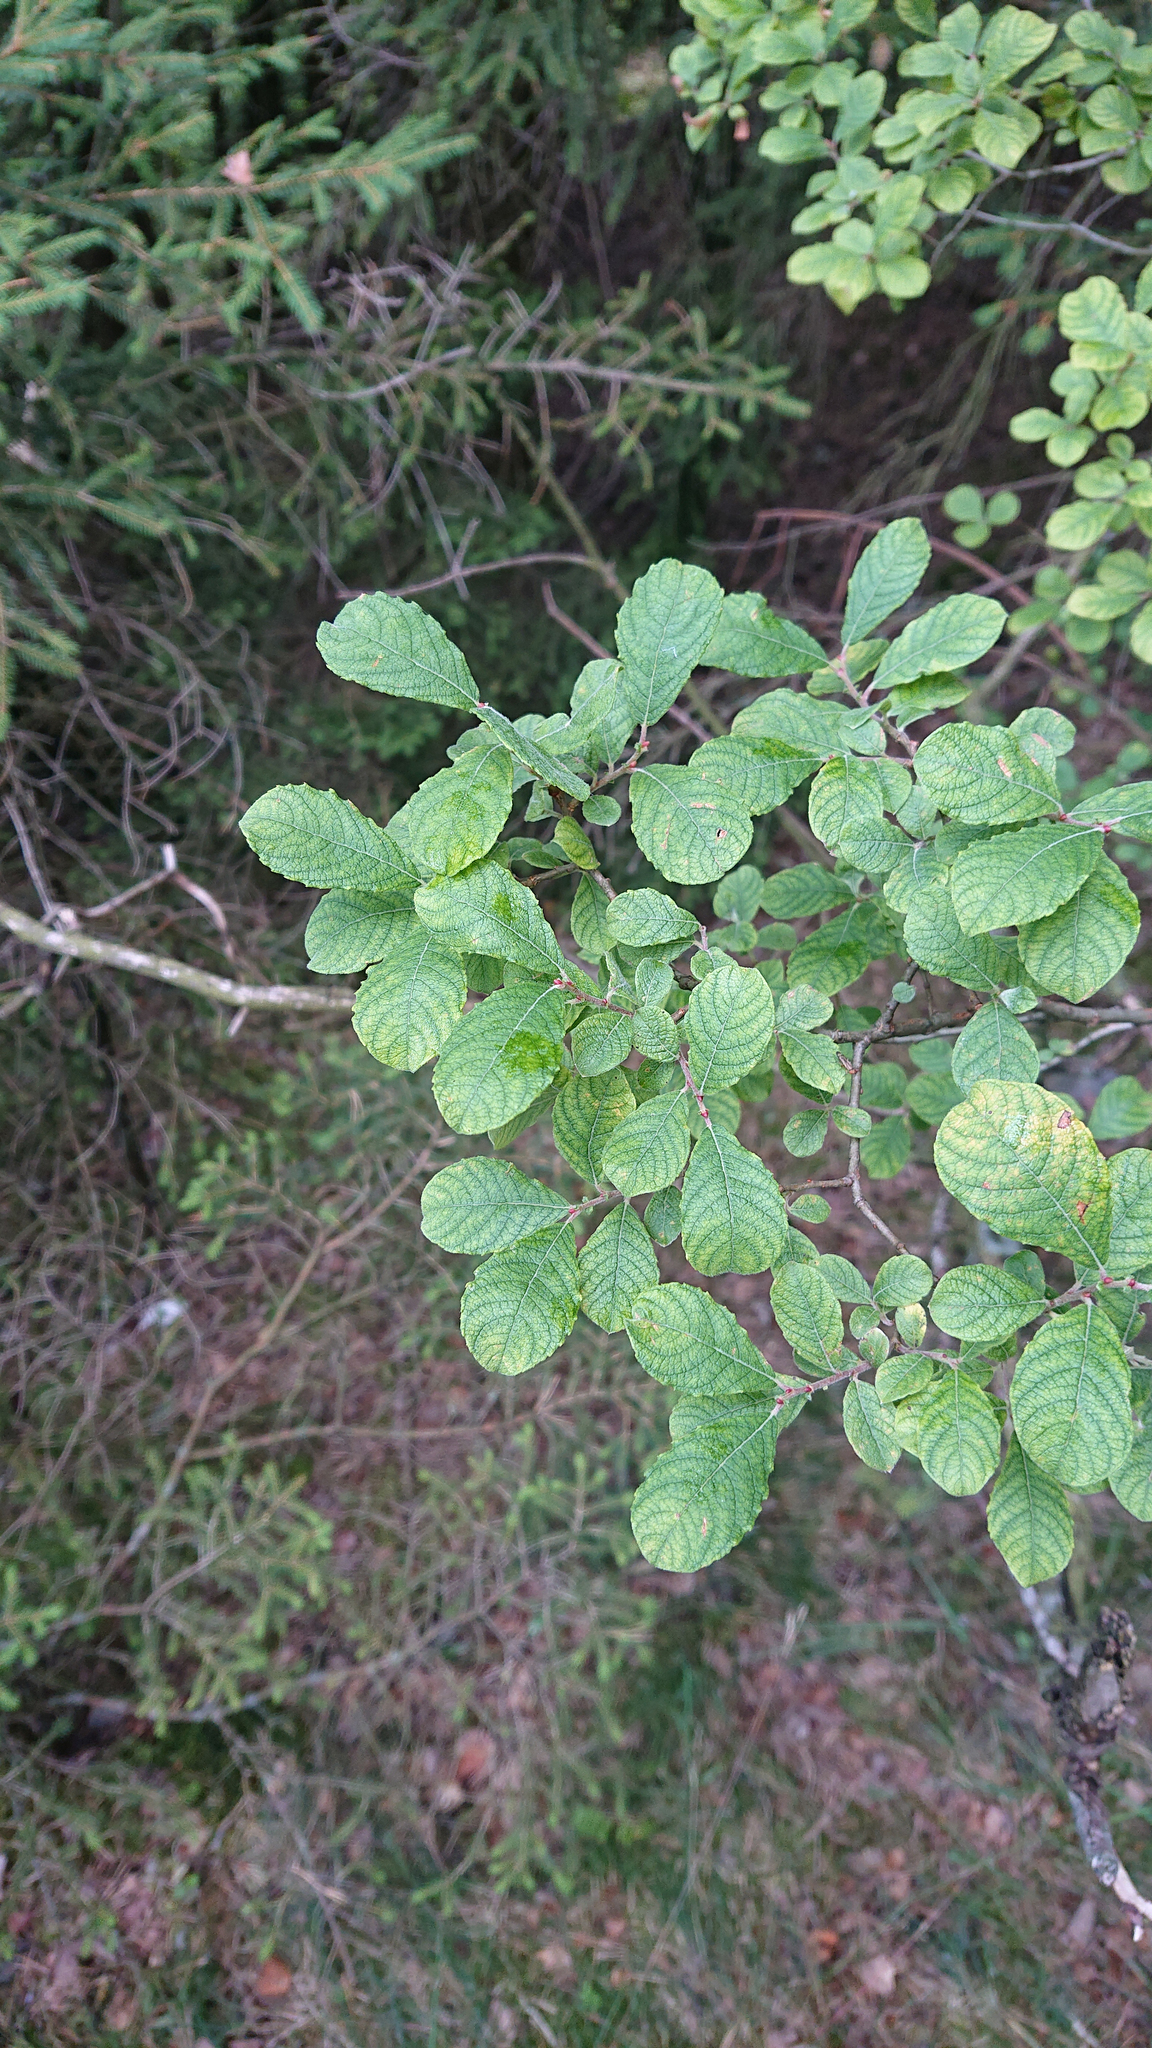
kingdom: Plantae
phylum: Tracheophyta
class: Magnoliopsida
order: Malpighiales
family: Salicaceae
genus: Salix
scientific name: Salix aurita
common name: Eared willow
